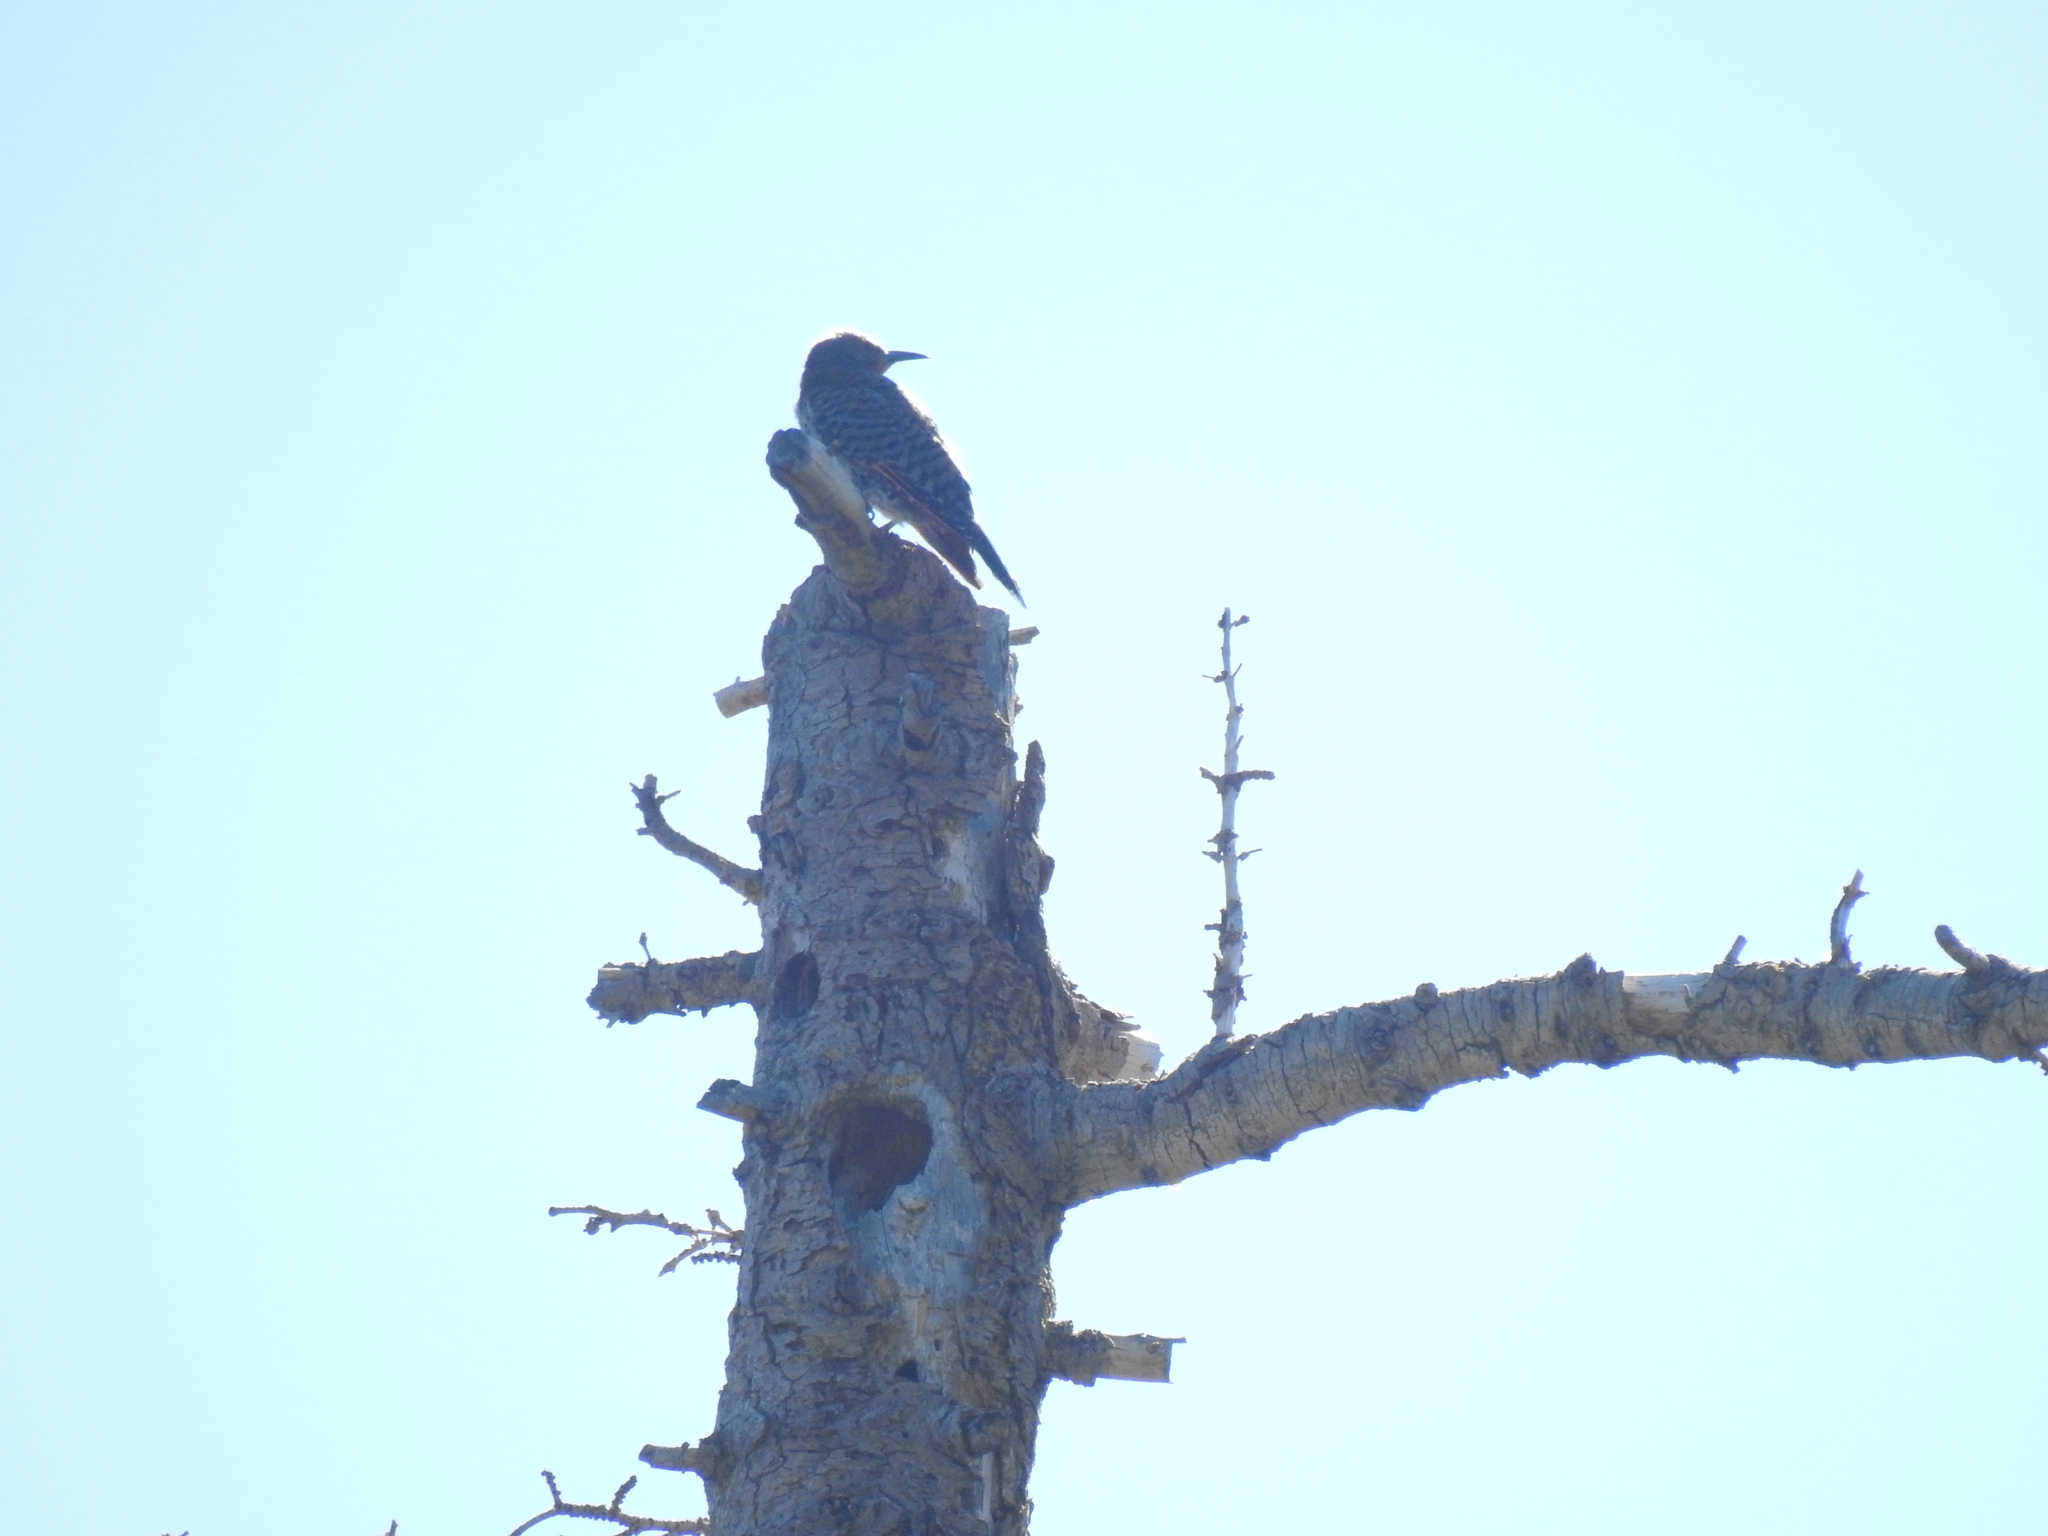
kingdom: Animalia
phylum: Chordata
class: Aves
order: Piciformes
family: Picidae
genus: Colaptes
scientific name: Colaptes auratus
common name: Northern flicker
